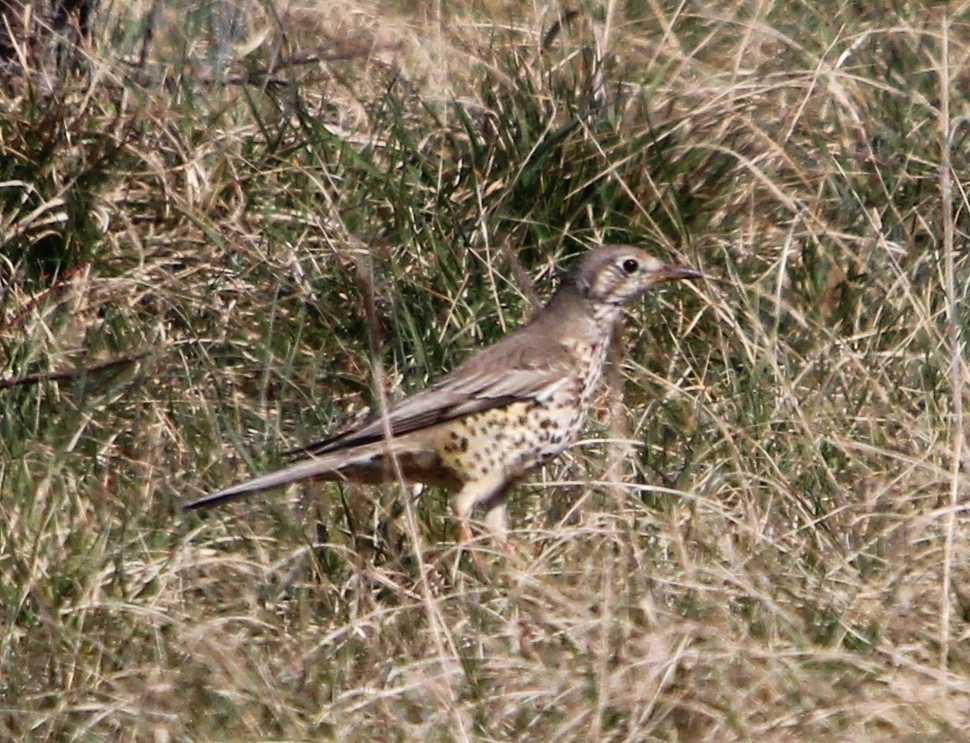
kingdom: Animalia
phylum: Chordata
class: Aves
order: Passeriformes
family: Turdidae
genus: Turdus
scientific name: Turdus viscivorus
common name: Mistle thrush
